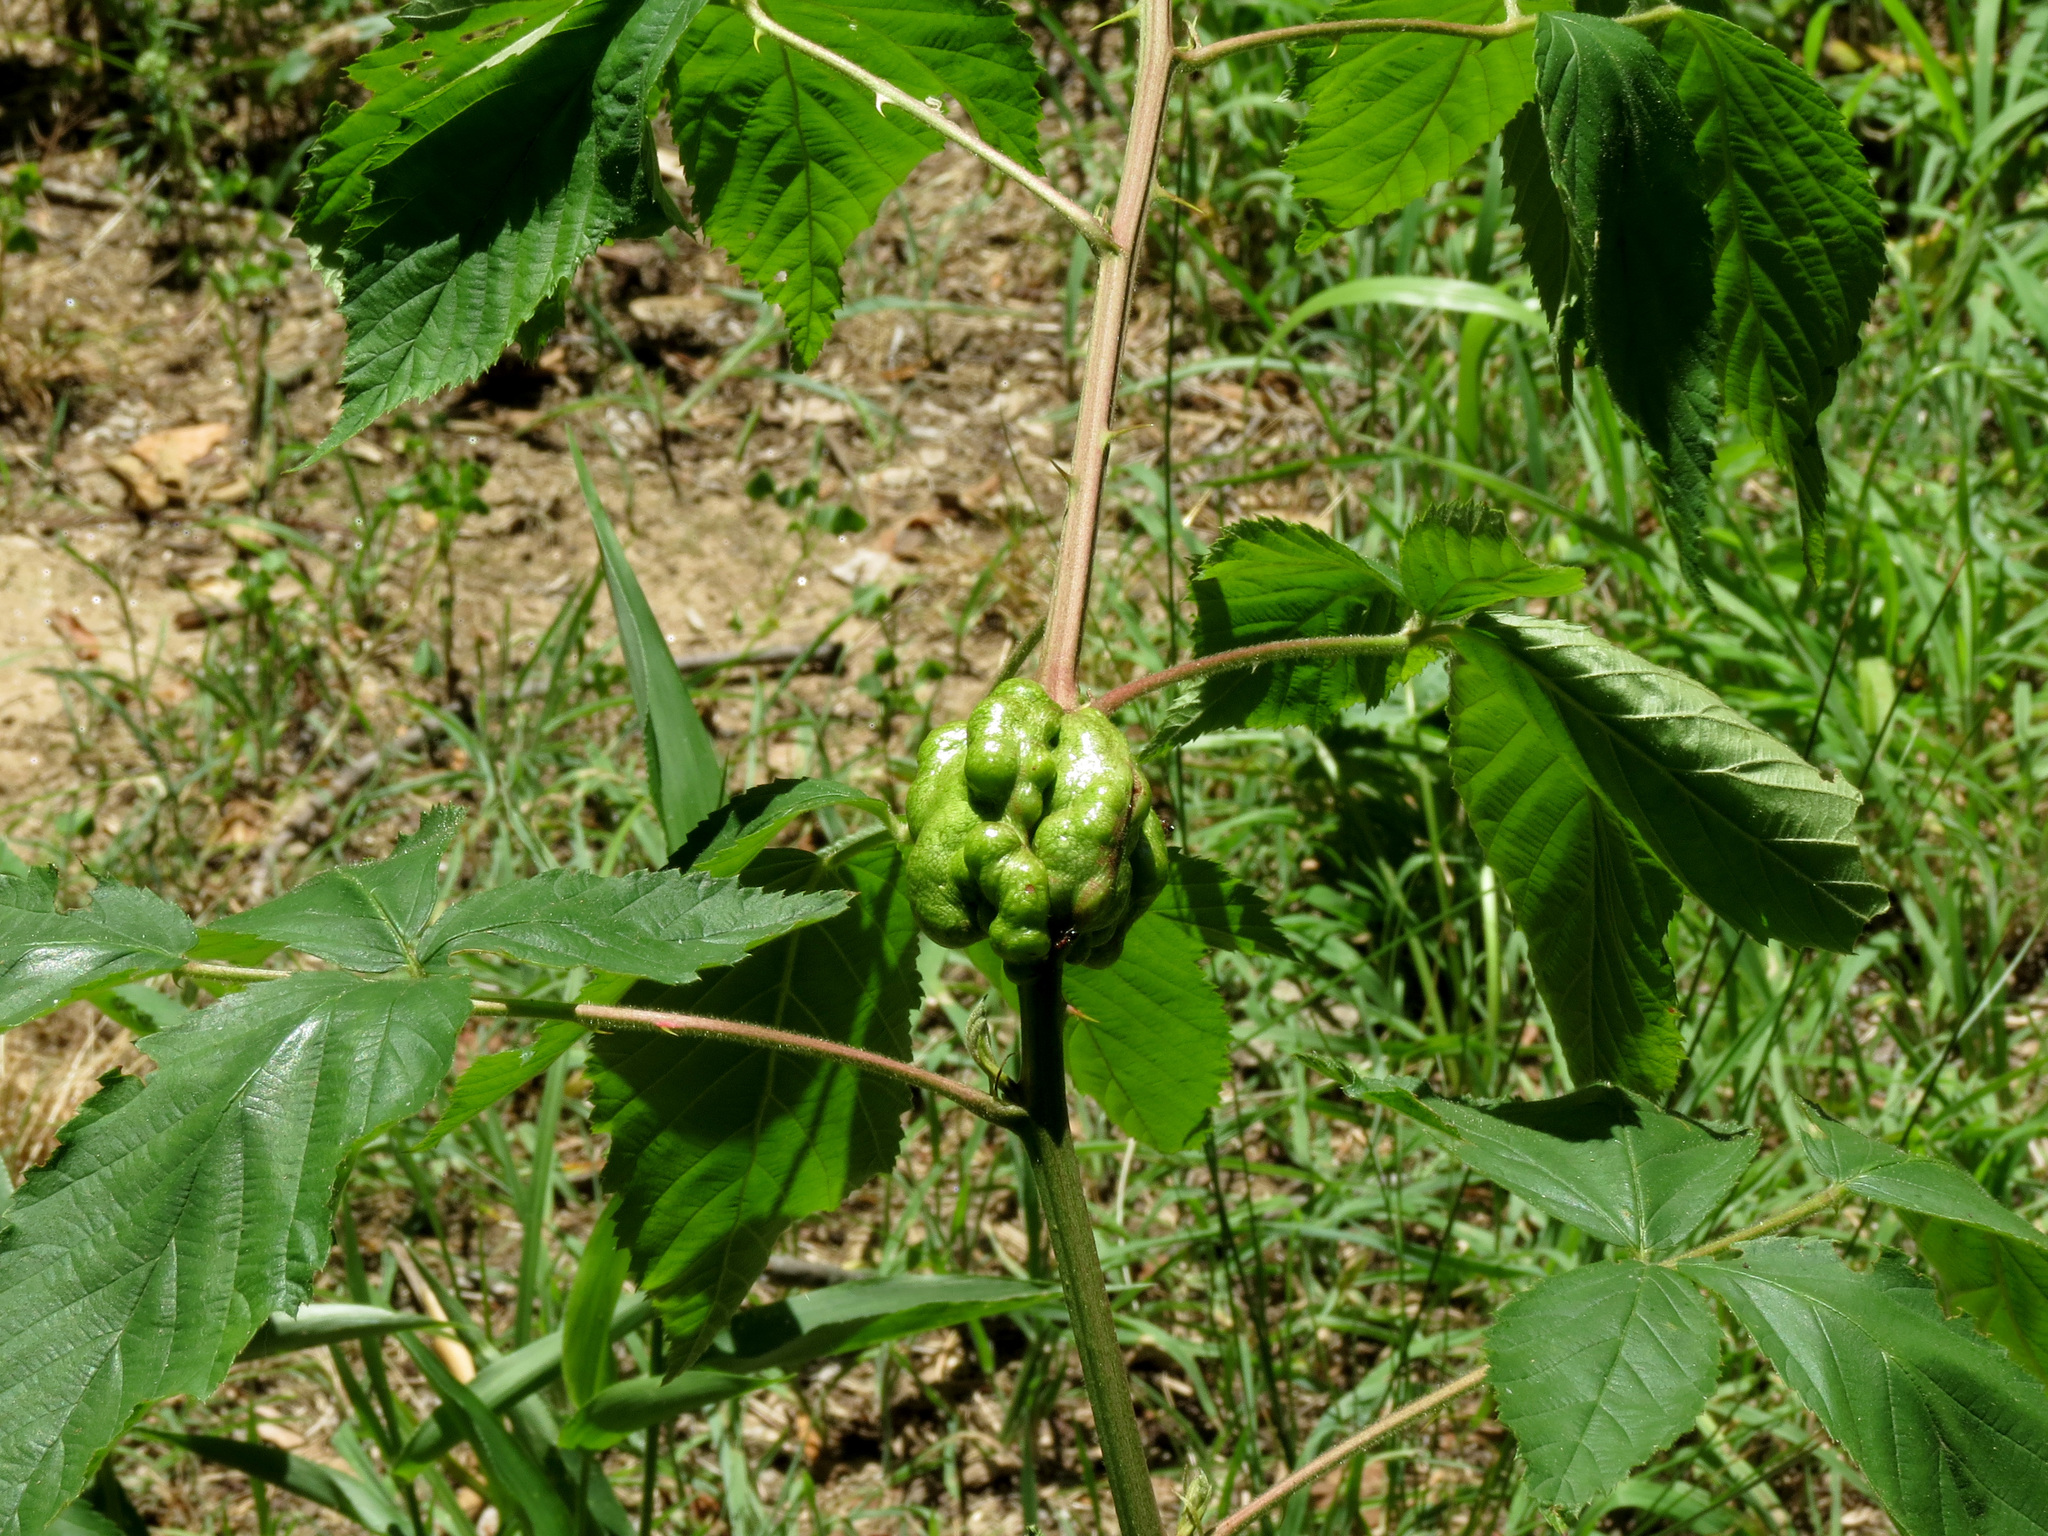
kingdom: Animalia
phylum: Arthropoda
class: Insecta
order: Hymenoptera
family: Cynipidae
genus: Diastrophus
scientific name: Diastrophus
